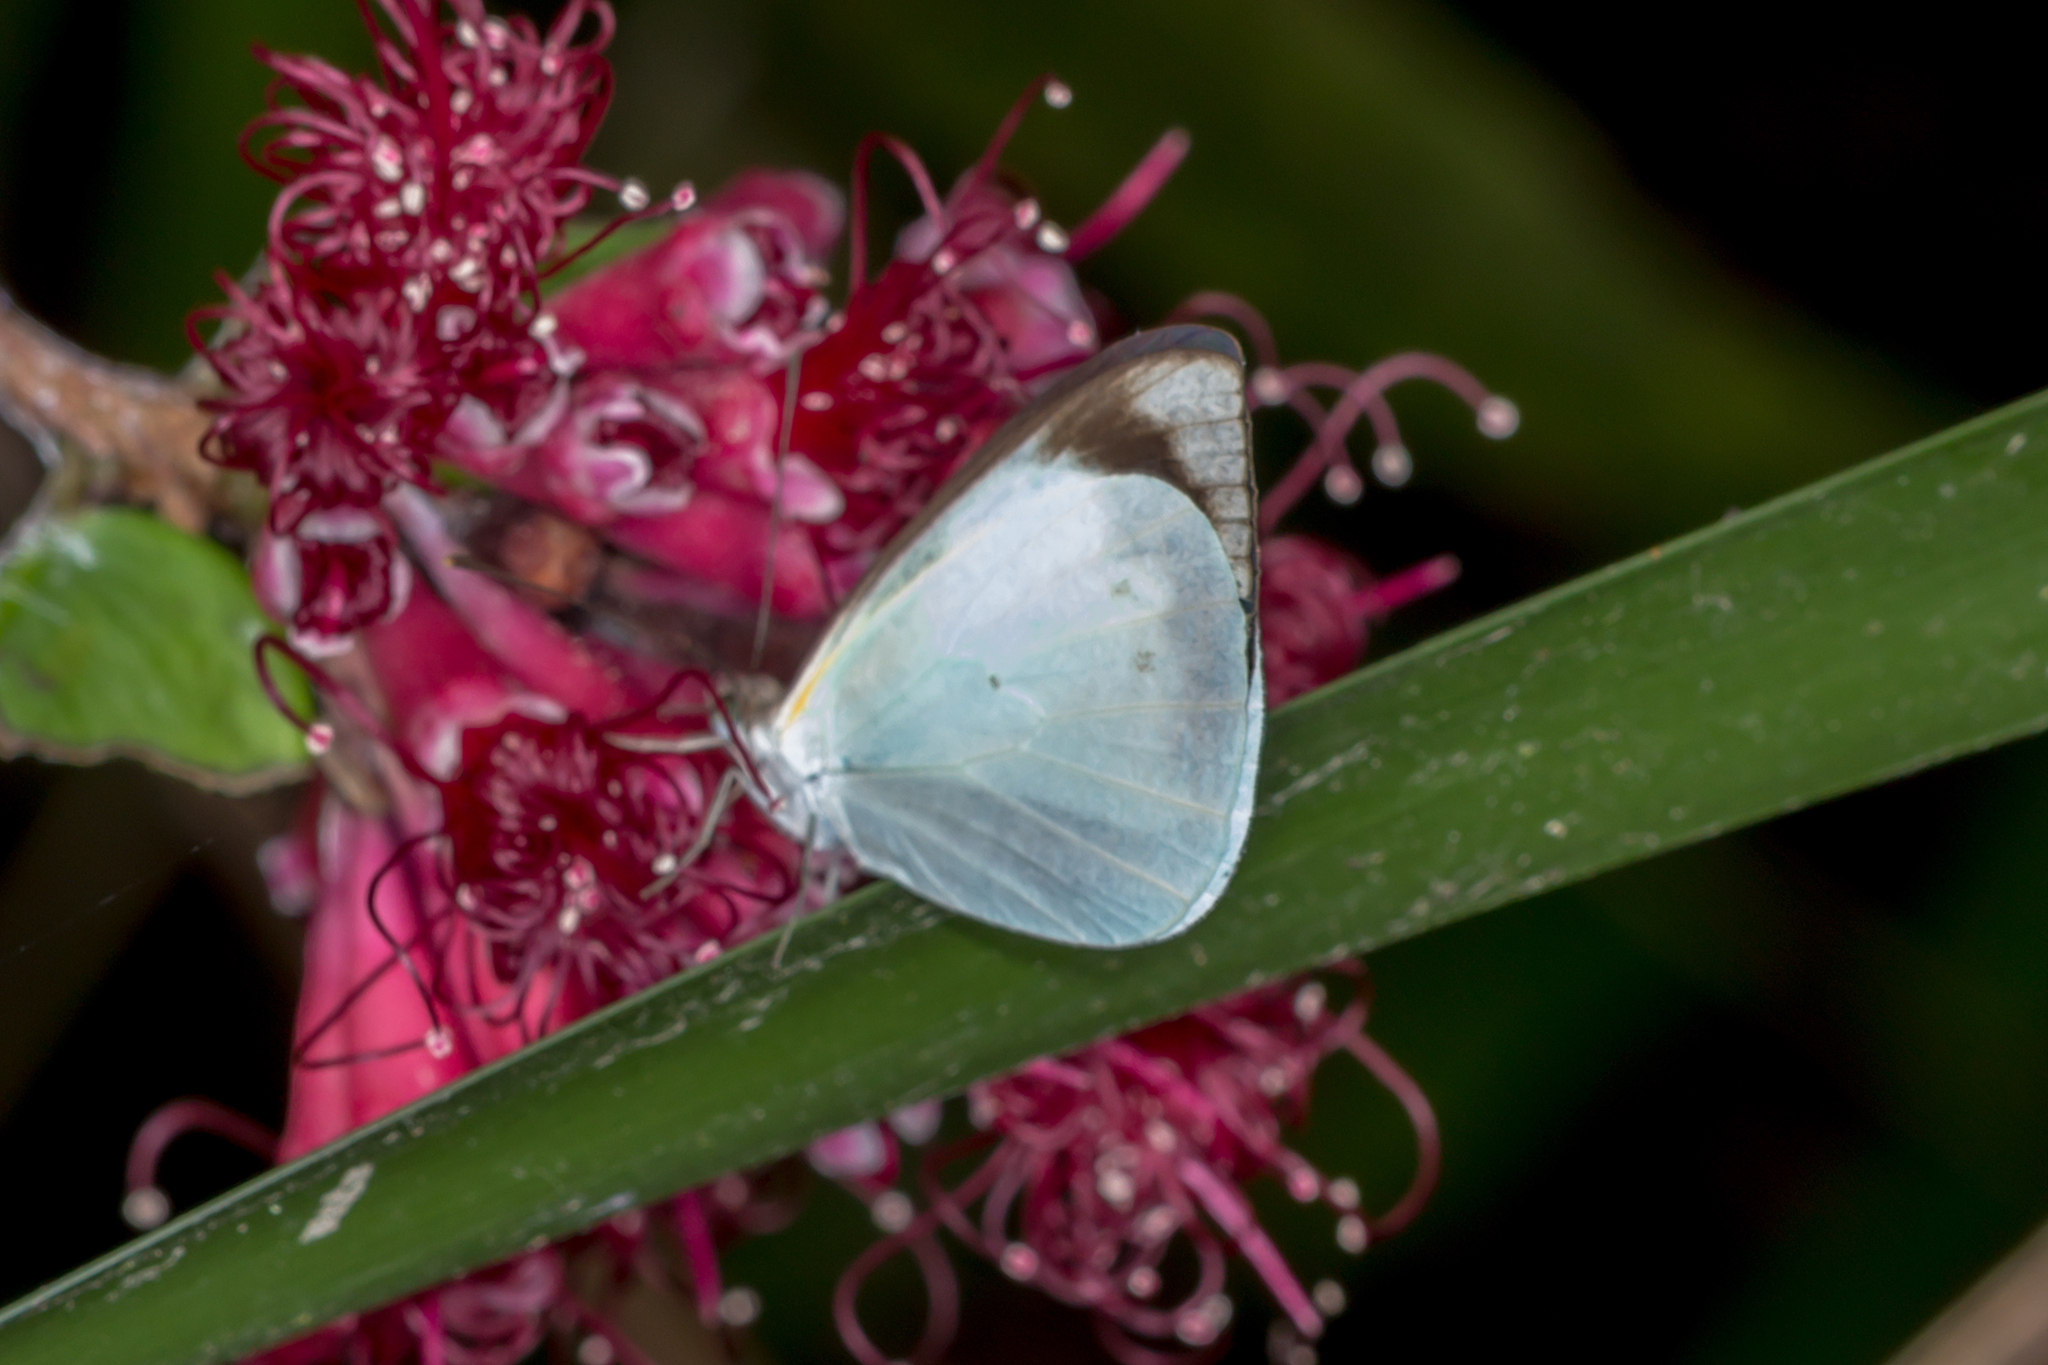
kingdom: Animalia
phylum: Arthropoda
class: Insecta
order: Lepidoptera
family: Pieridae
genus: Elodina
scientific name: Elodina queenslandica
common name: Glistening pearl-white
